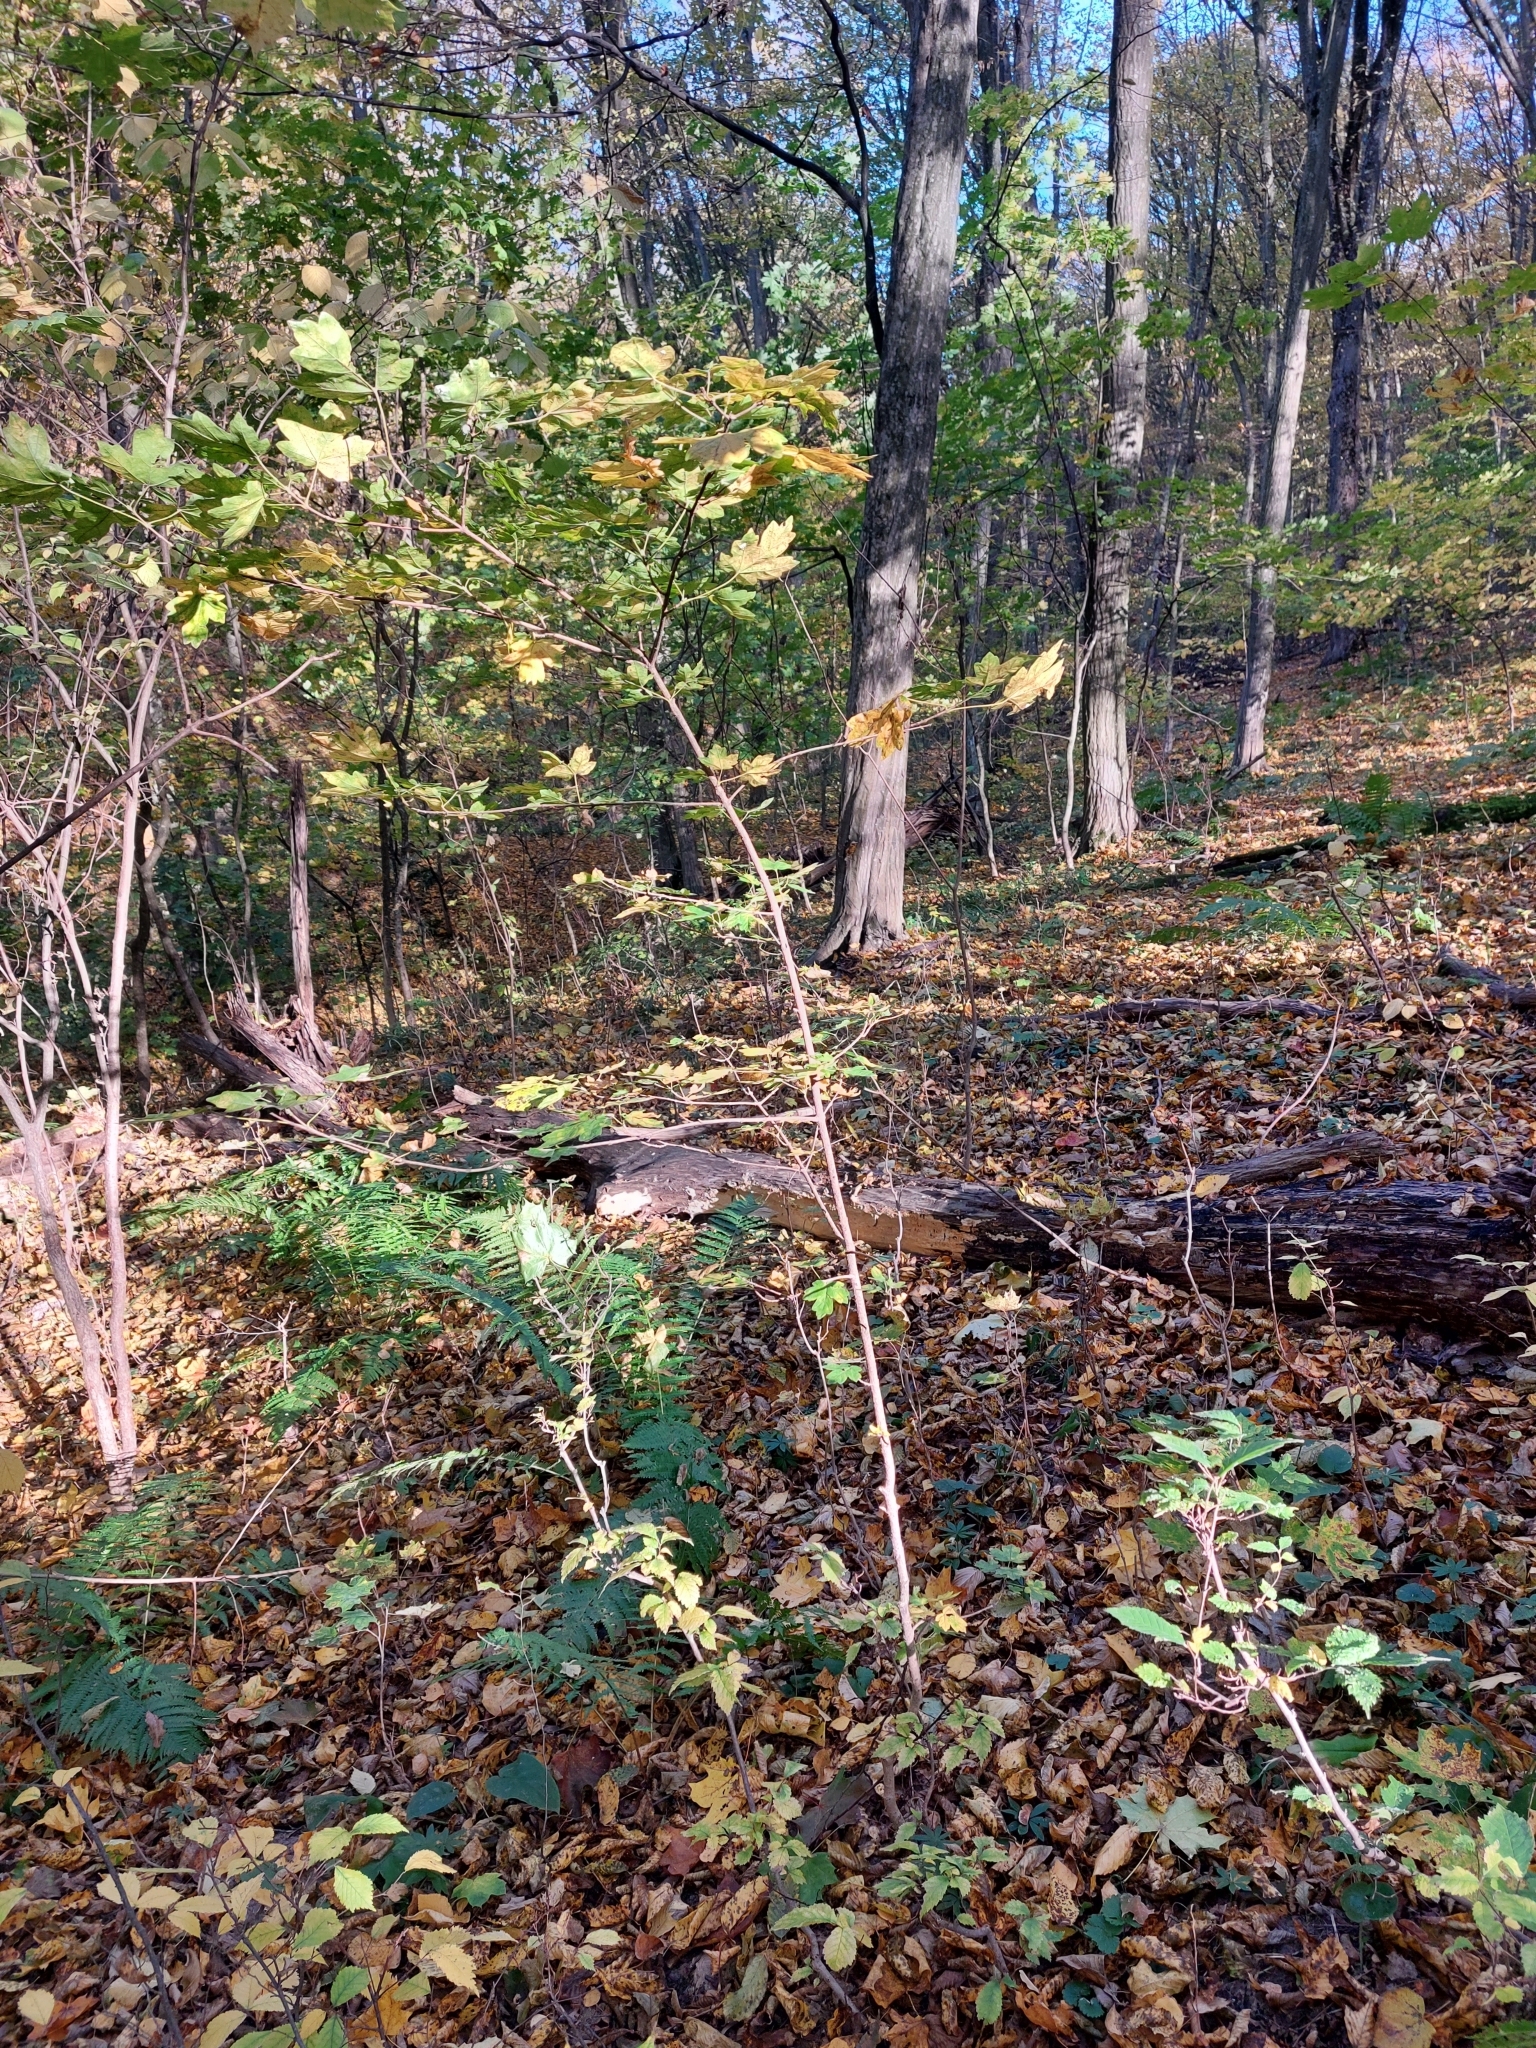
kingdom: Plantae
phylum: Tracheophyta
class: Magnoliopsida
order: Sapindales
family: Sapindaceae
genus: Acer
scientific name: Acer campestre
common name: Field maple
